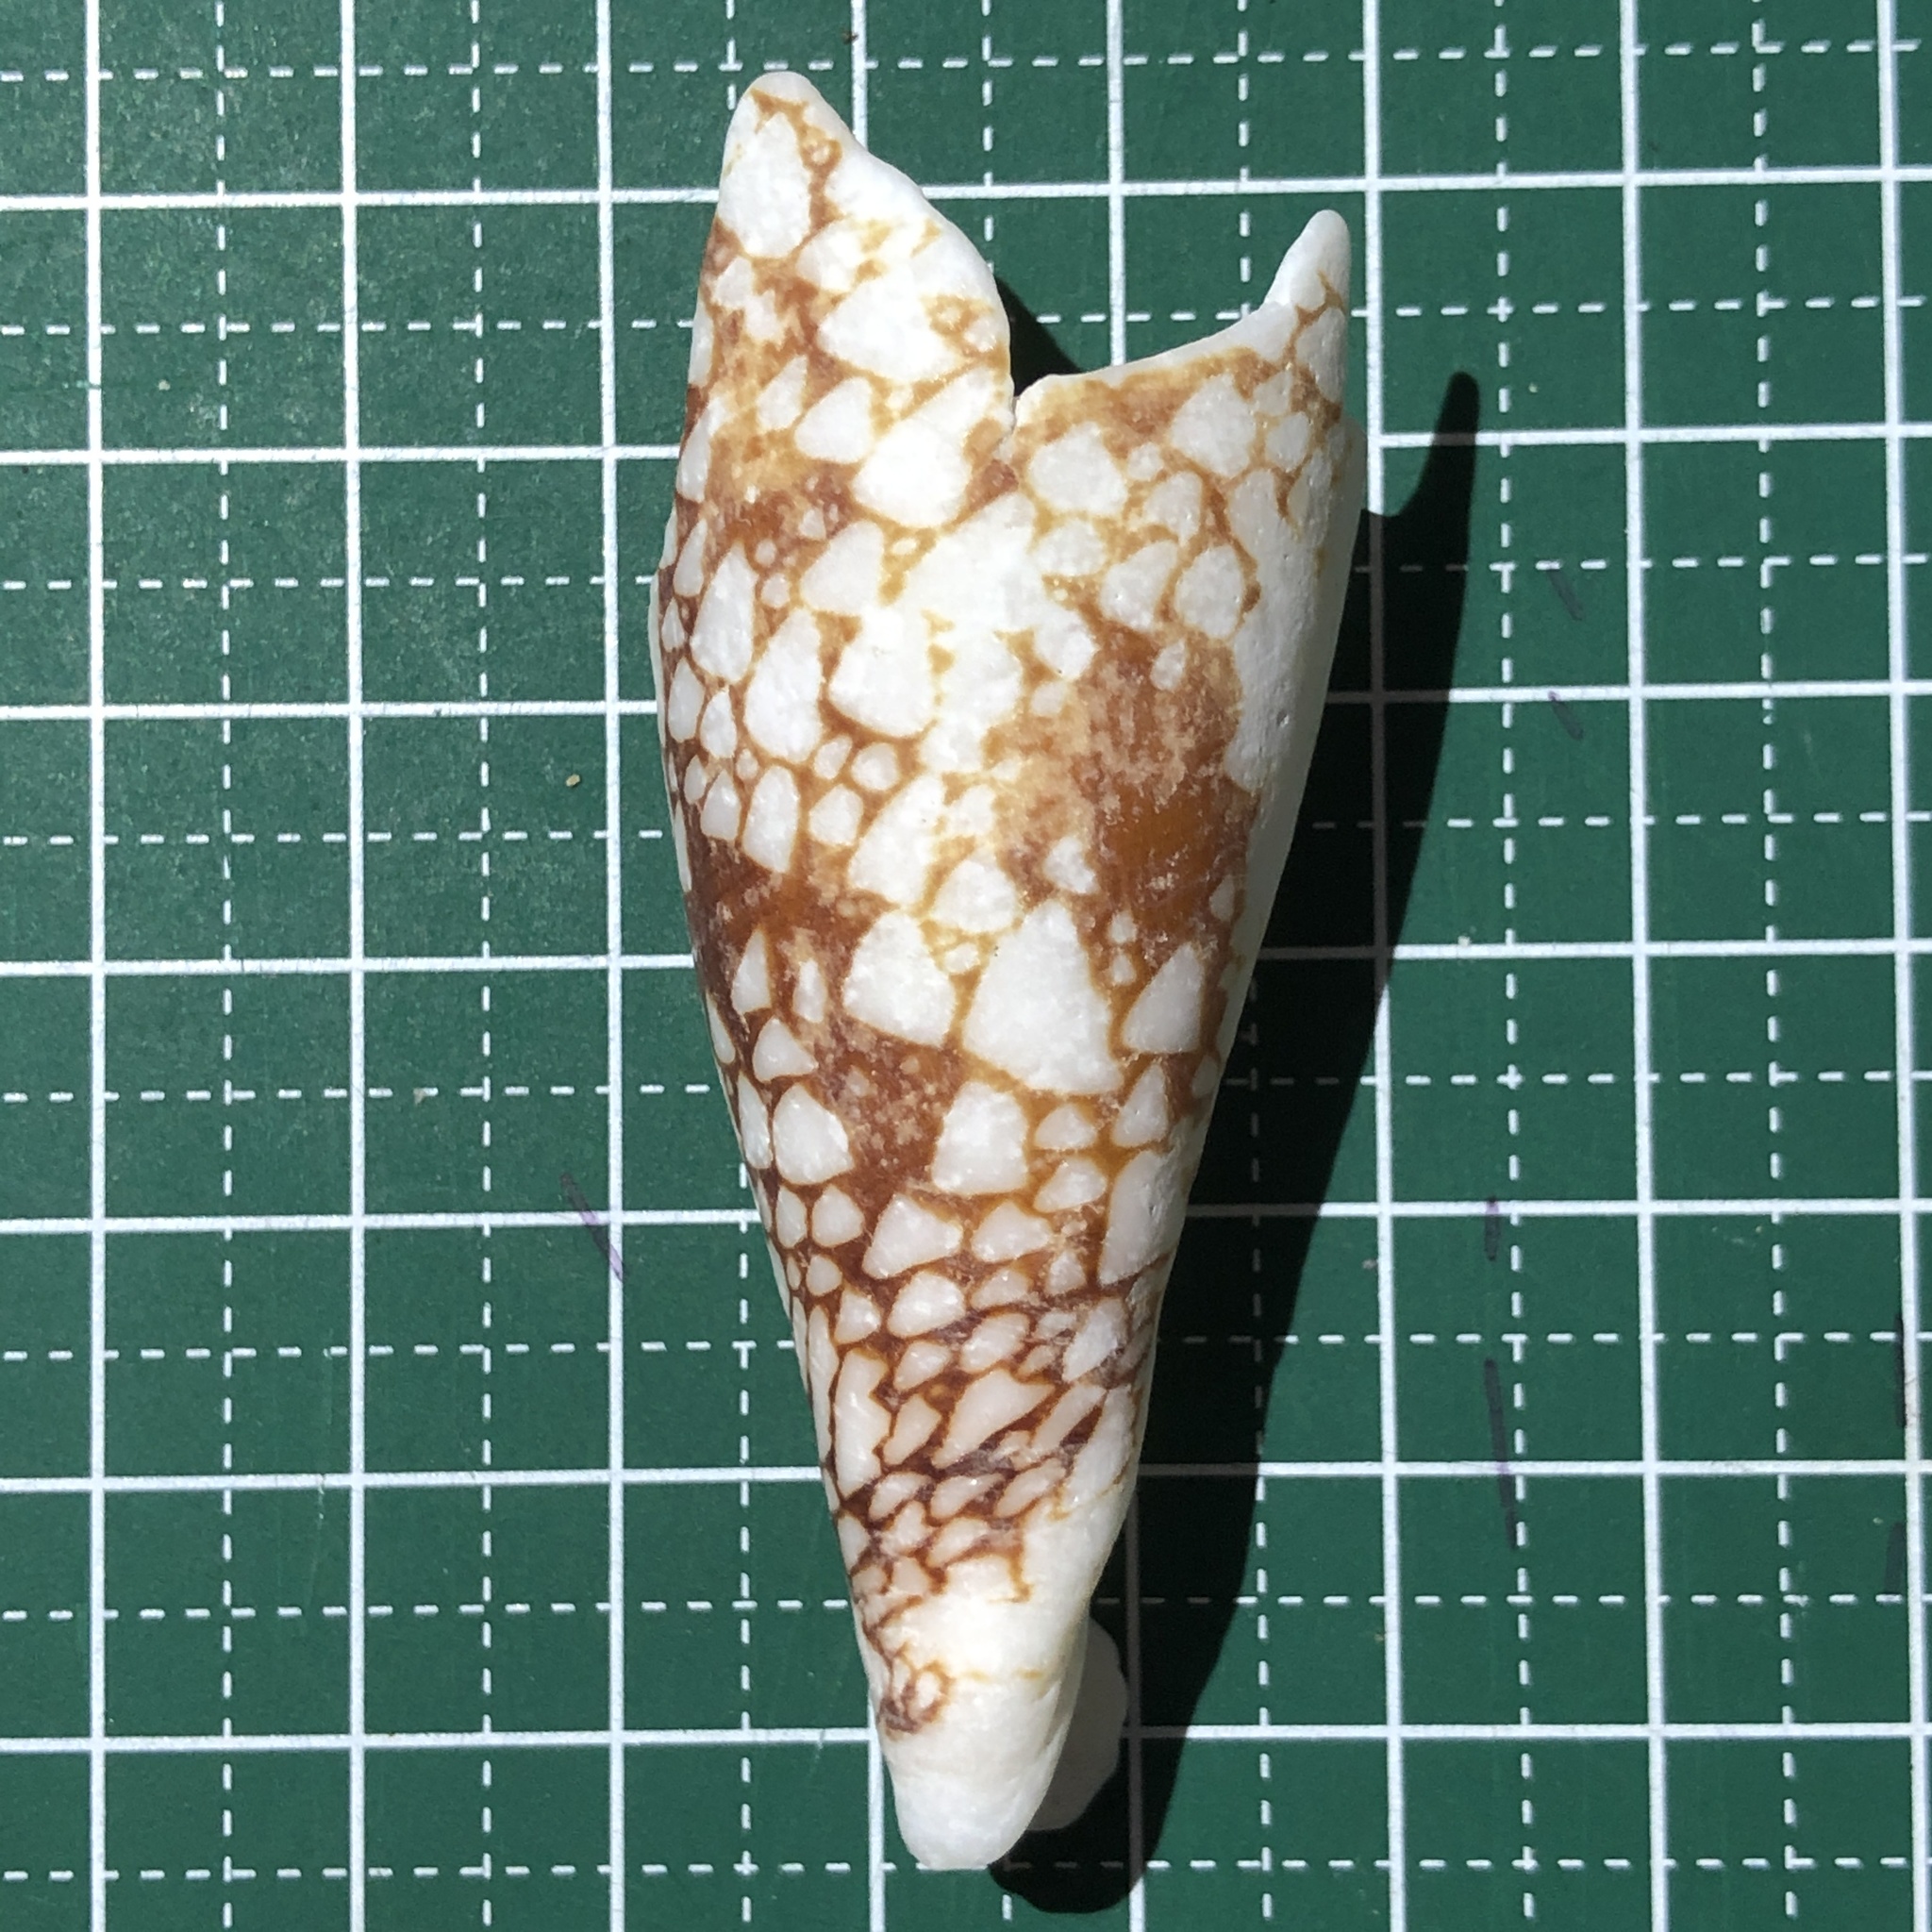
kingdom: Animalia
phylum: Mollusca
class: Gastropoda
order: Neogastropoda
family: Conidae
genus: Conus
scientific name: Conus aulicus
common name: Court cone
